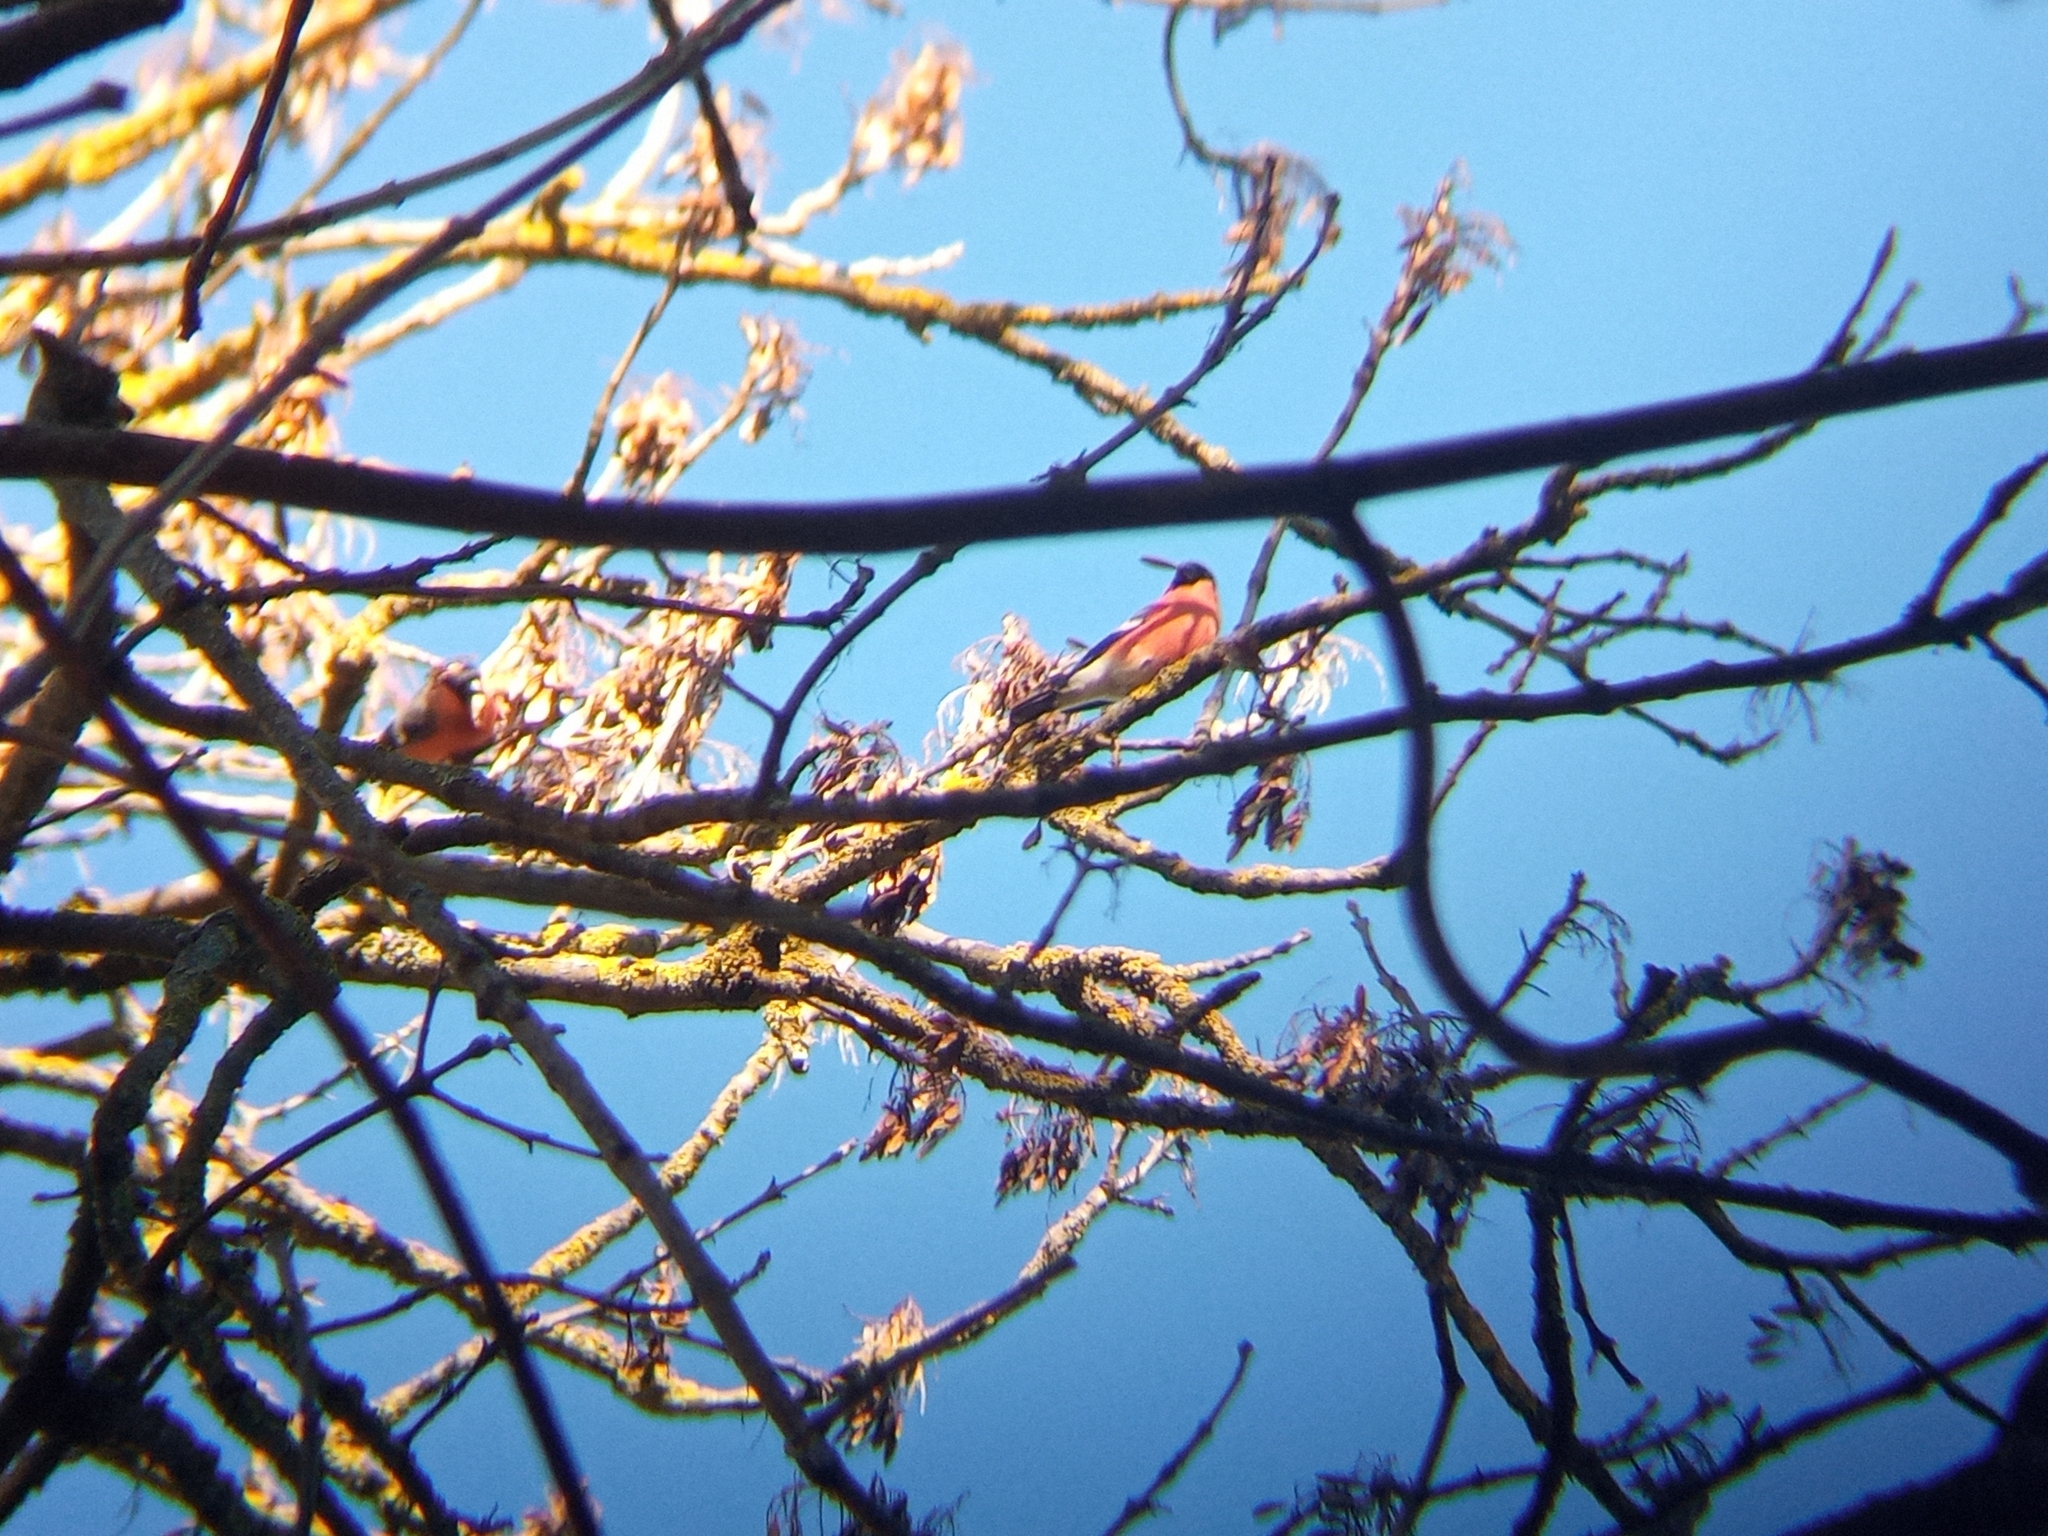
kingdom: Animalia
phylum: Chordata
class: Aves
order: Passeriformes
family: Fringillidae
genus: Pyrrhula
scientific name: Pyrrhula pyrrhula
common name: Eurasian bullfinch
